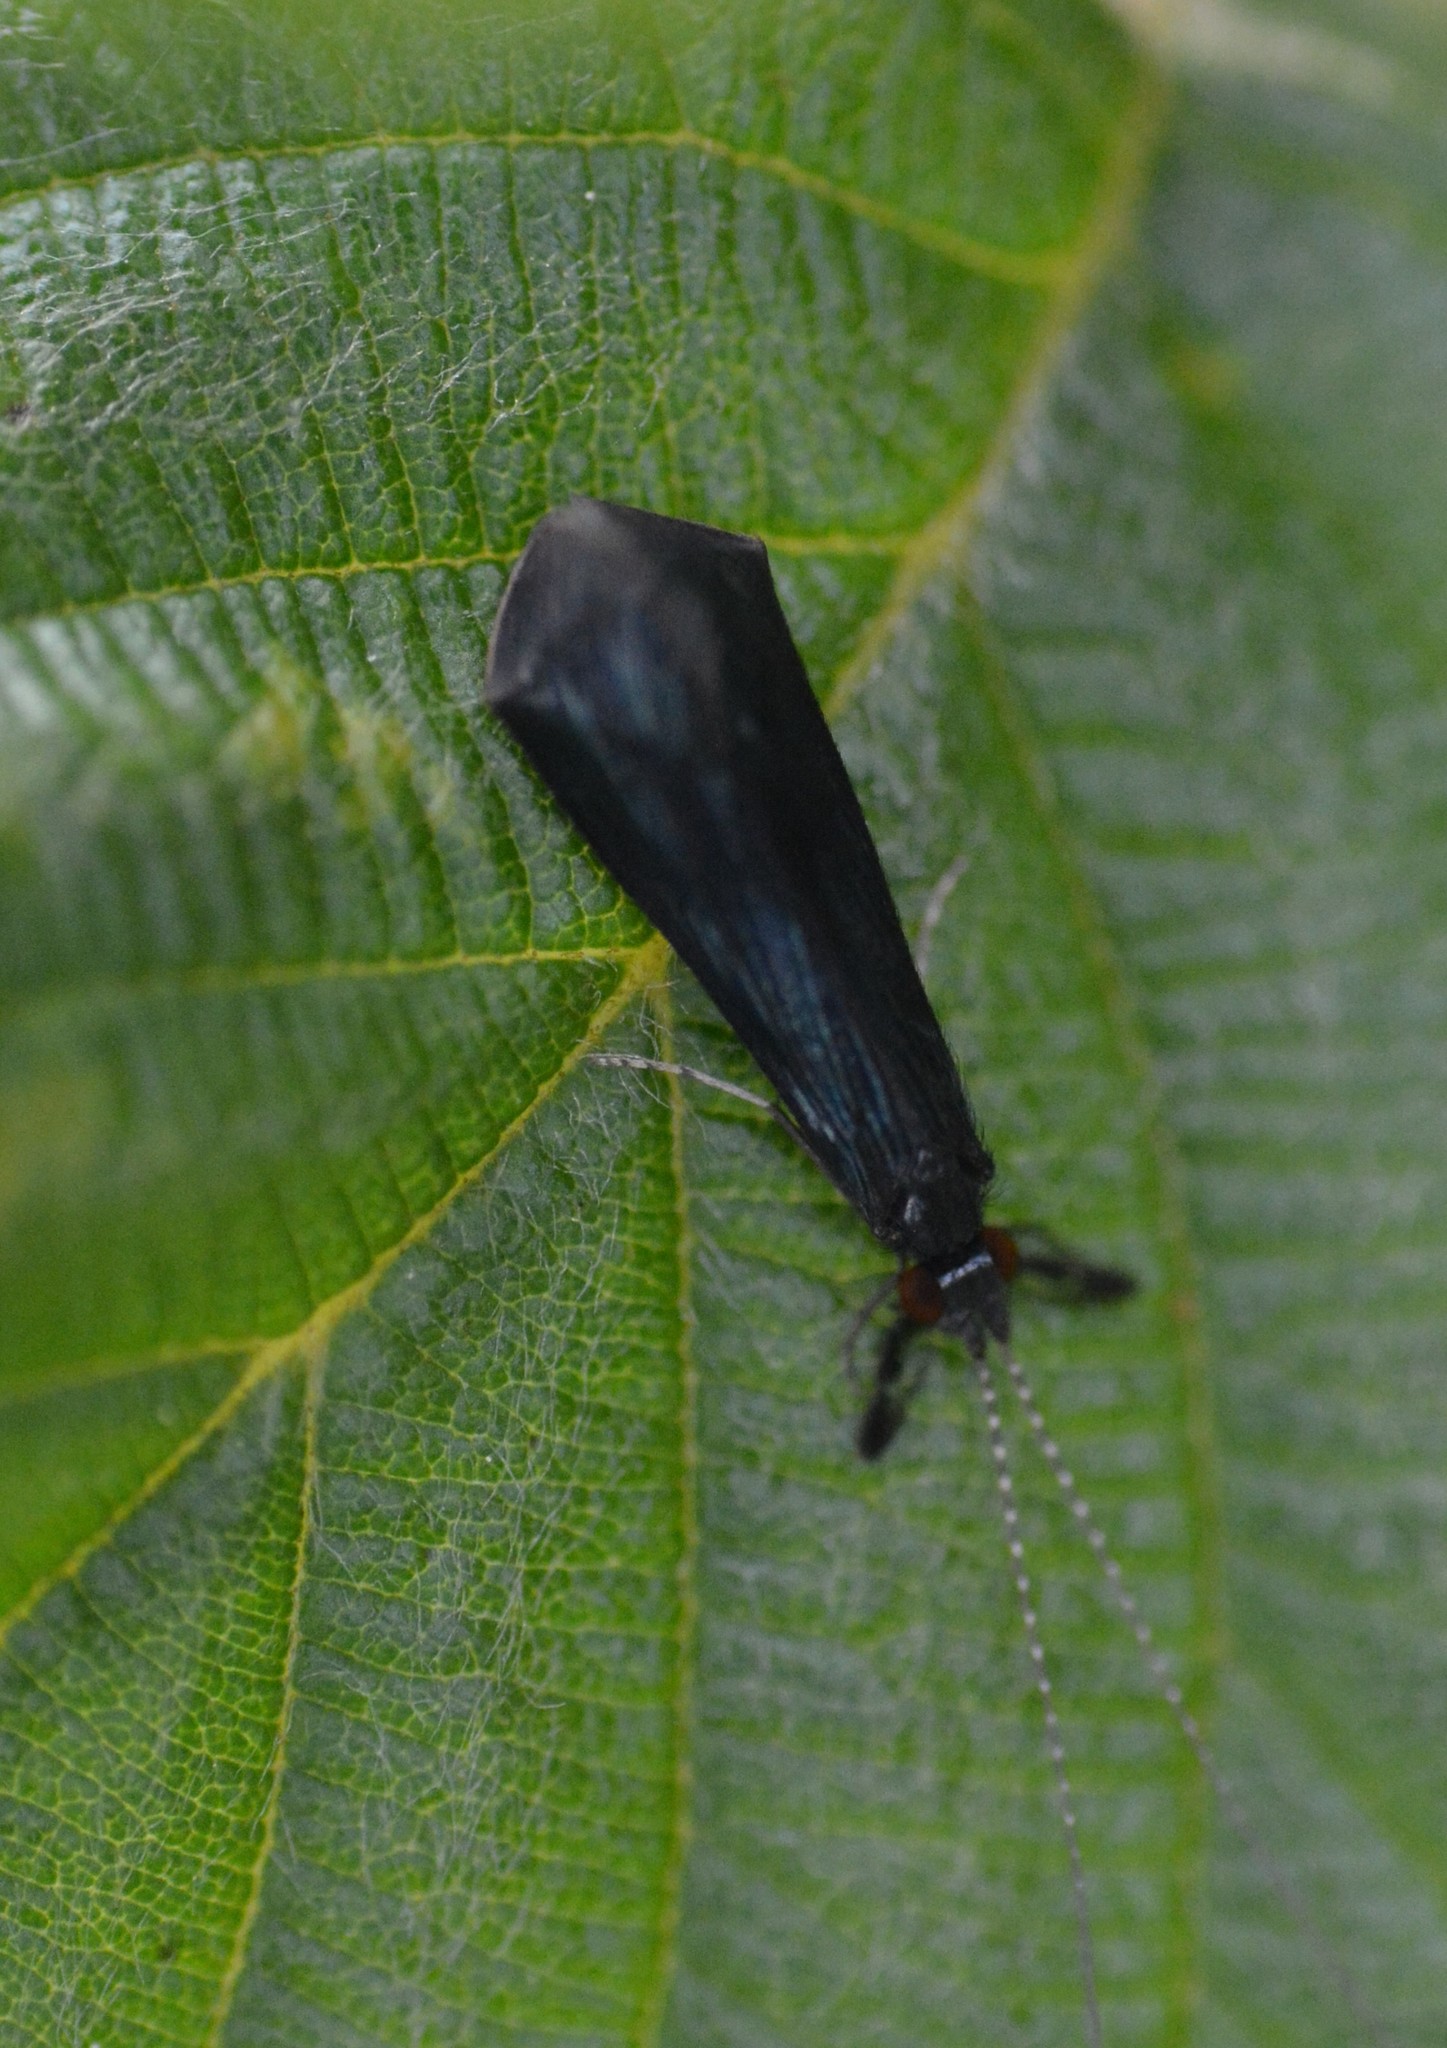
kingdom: Animalia
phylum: Arthropoda
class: Insecta
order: Trichoptera
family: Leptoceridae
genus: Mystacides
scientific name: Mystacides sepulchralis
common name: Black dancer caddisfly
